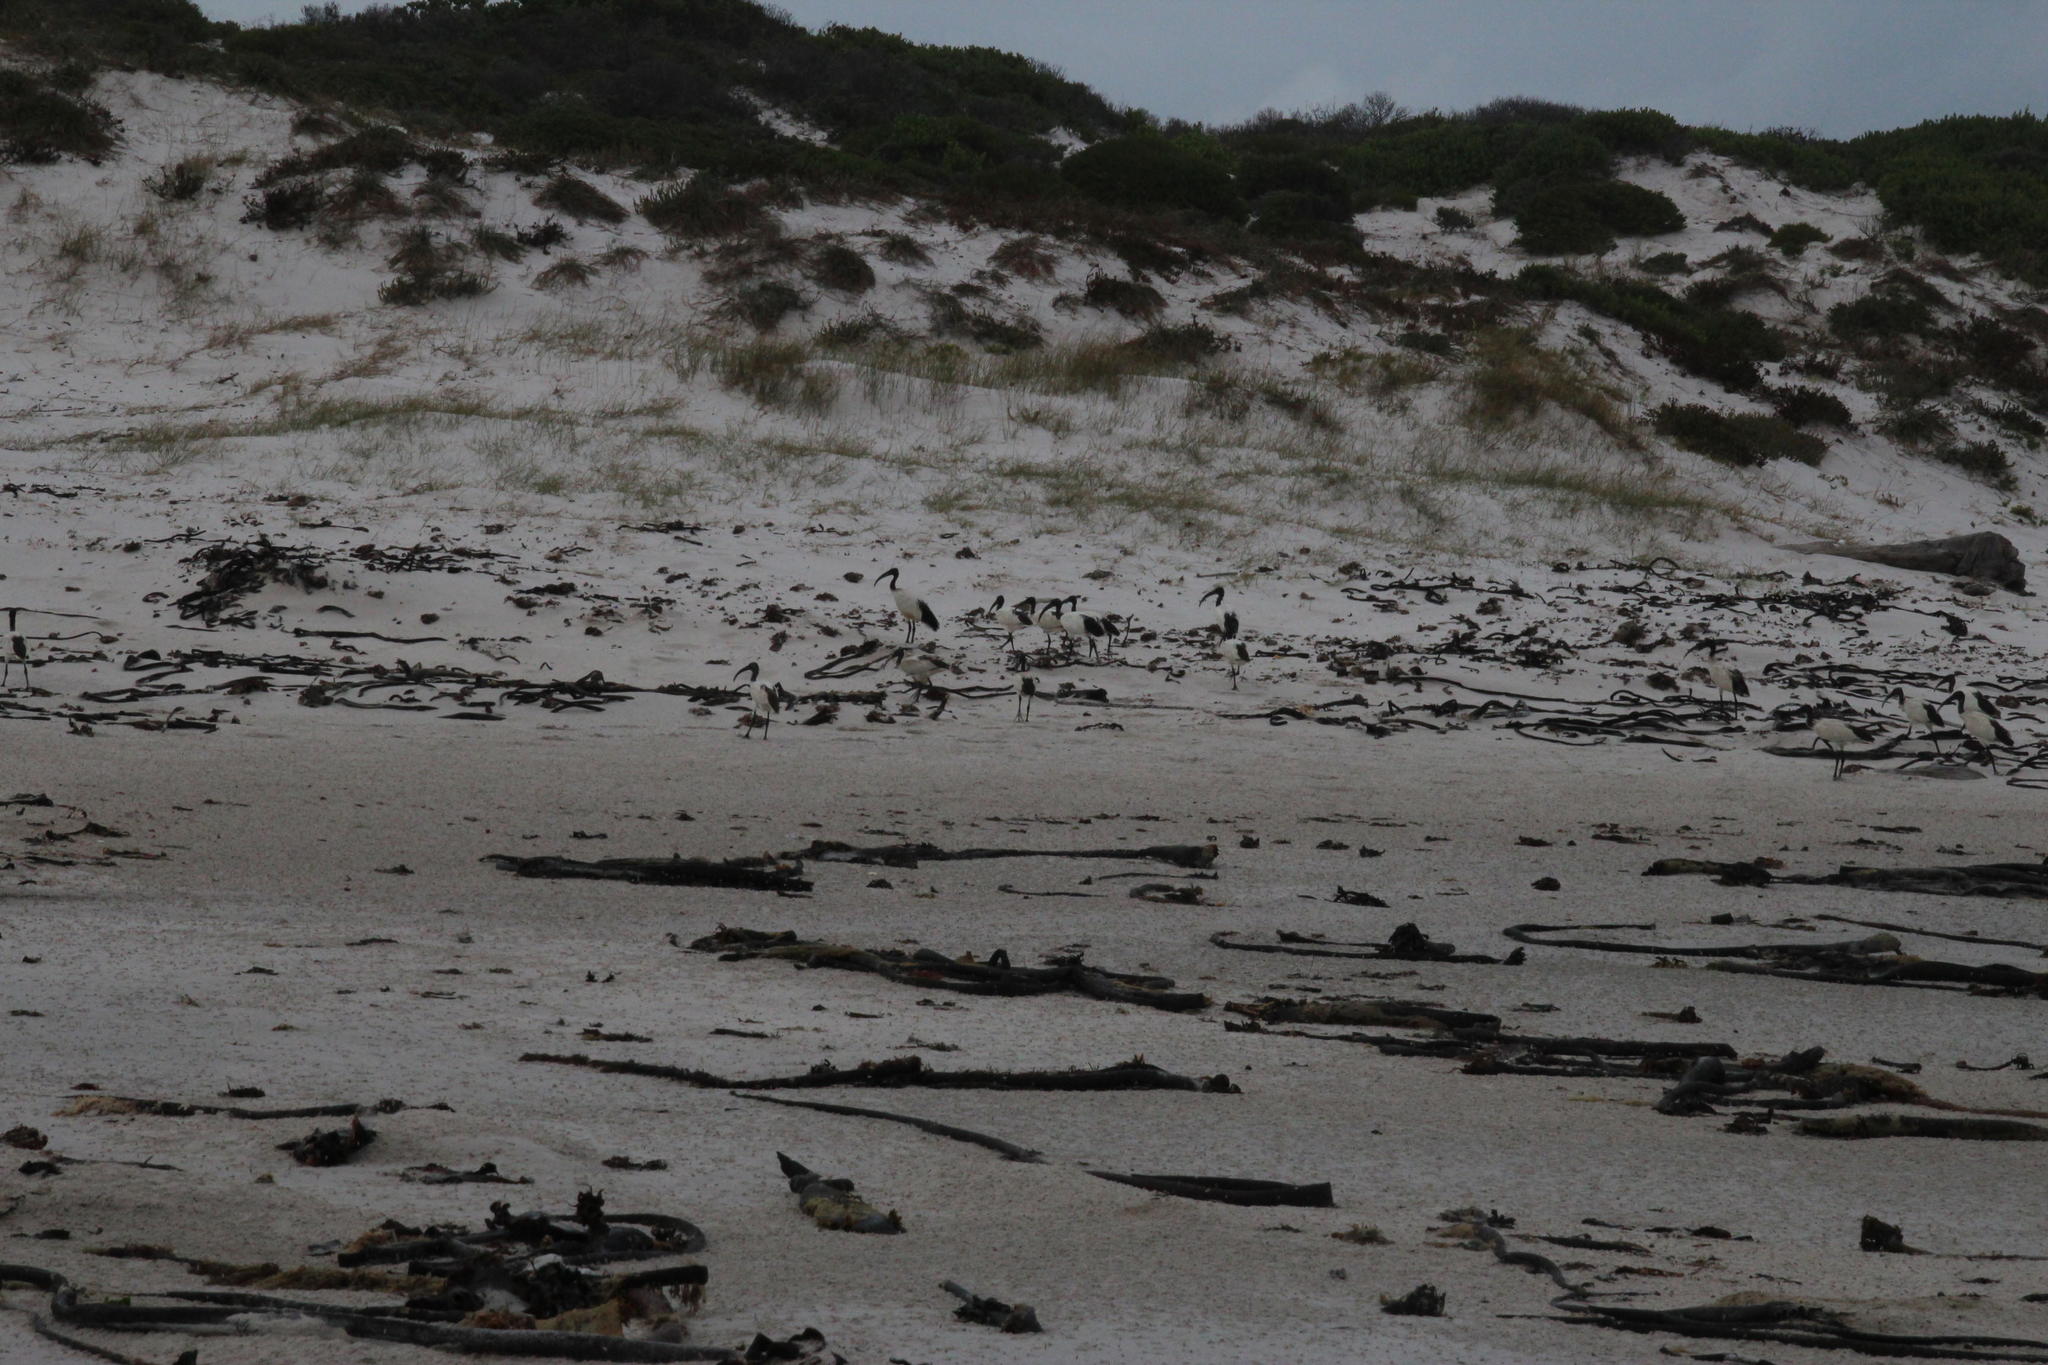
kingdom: Animalia
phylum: Chordata
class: Aves
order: Pelecaniformes
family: Threskiornithidae
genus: Threskiornis
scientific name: Threskiornis aethiopicus
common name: Sacred ibis
